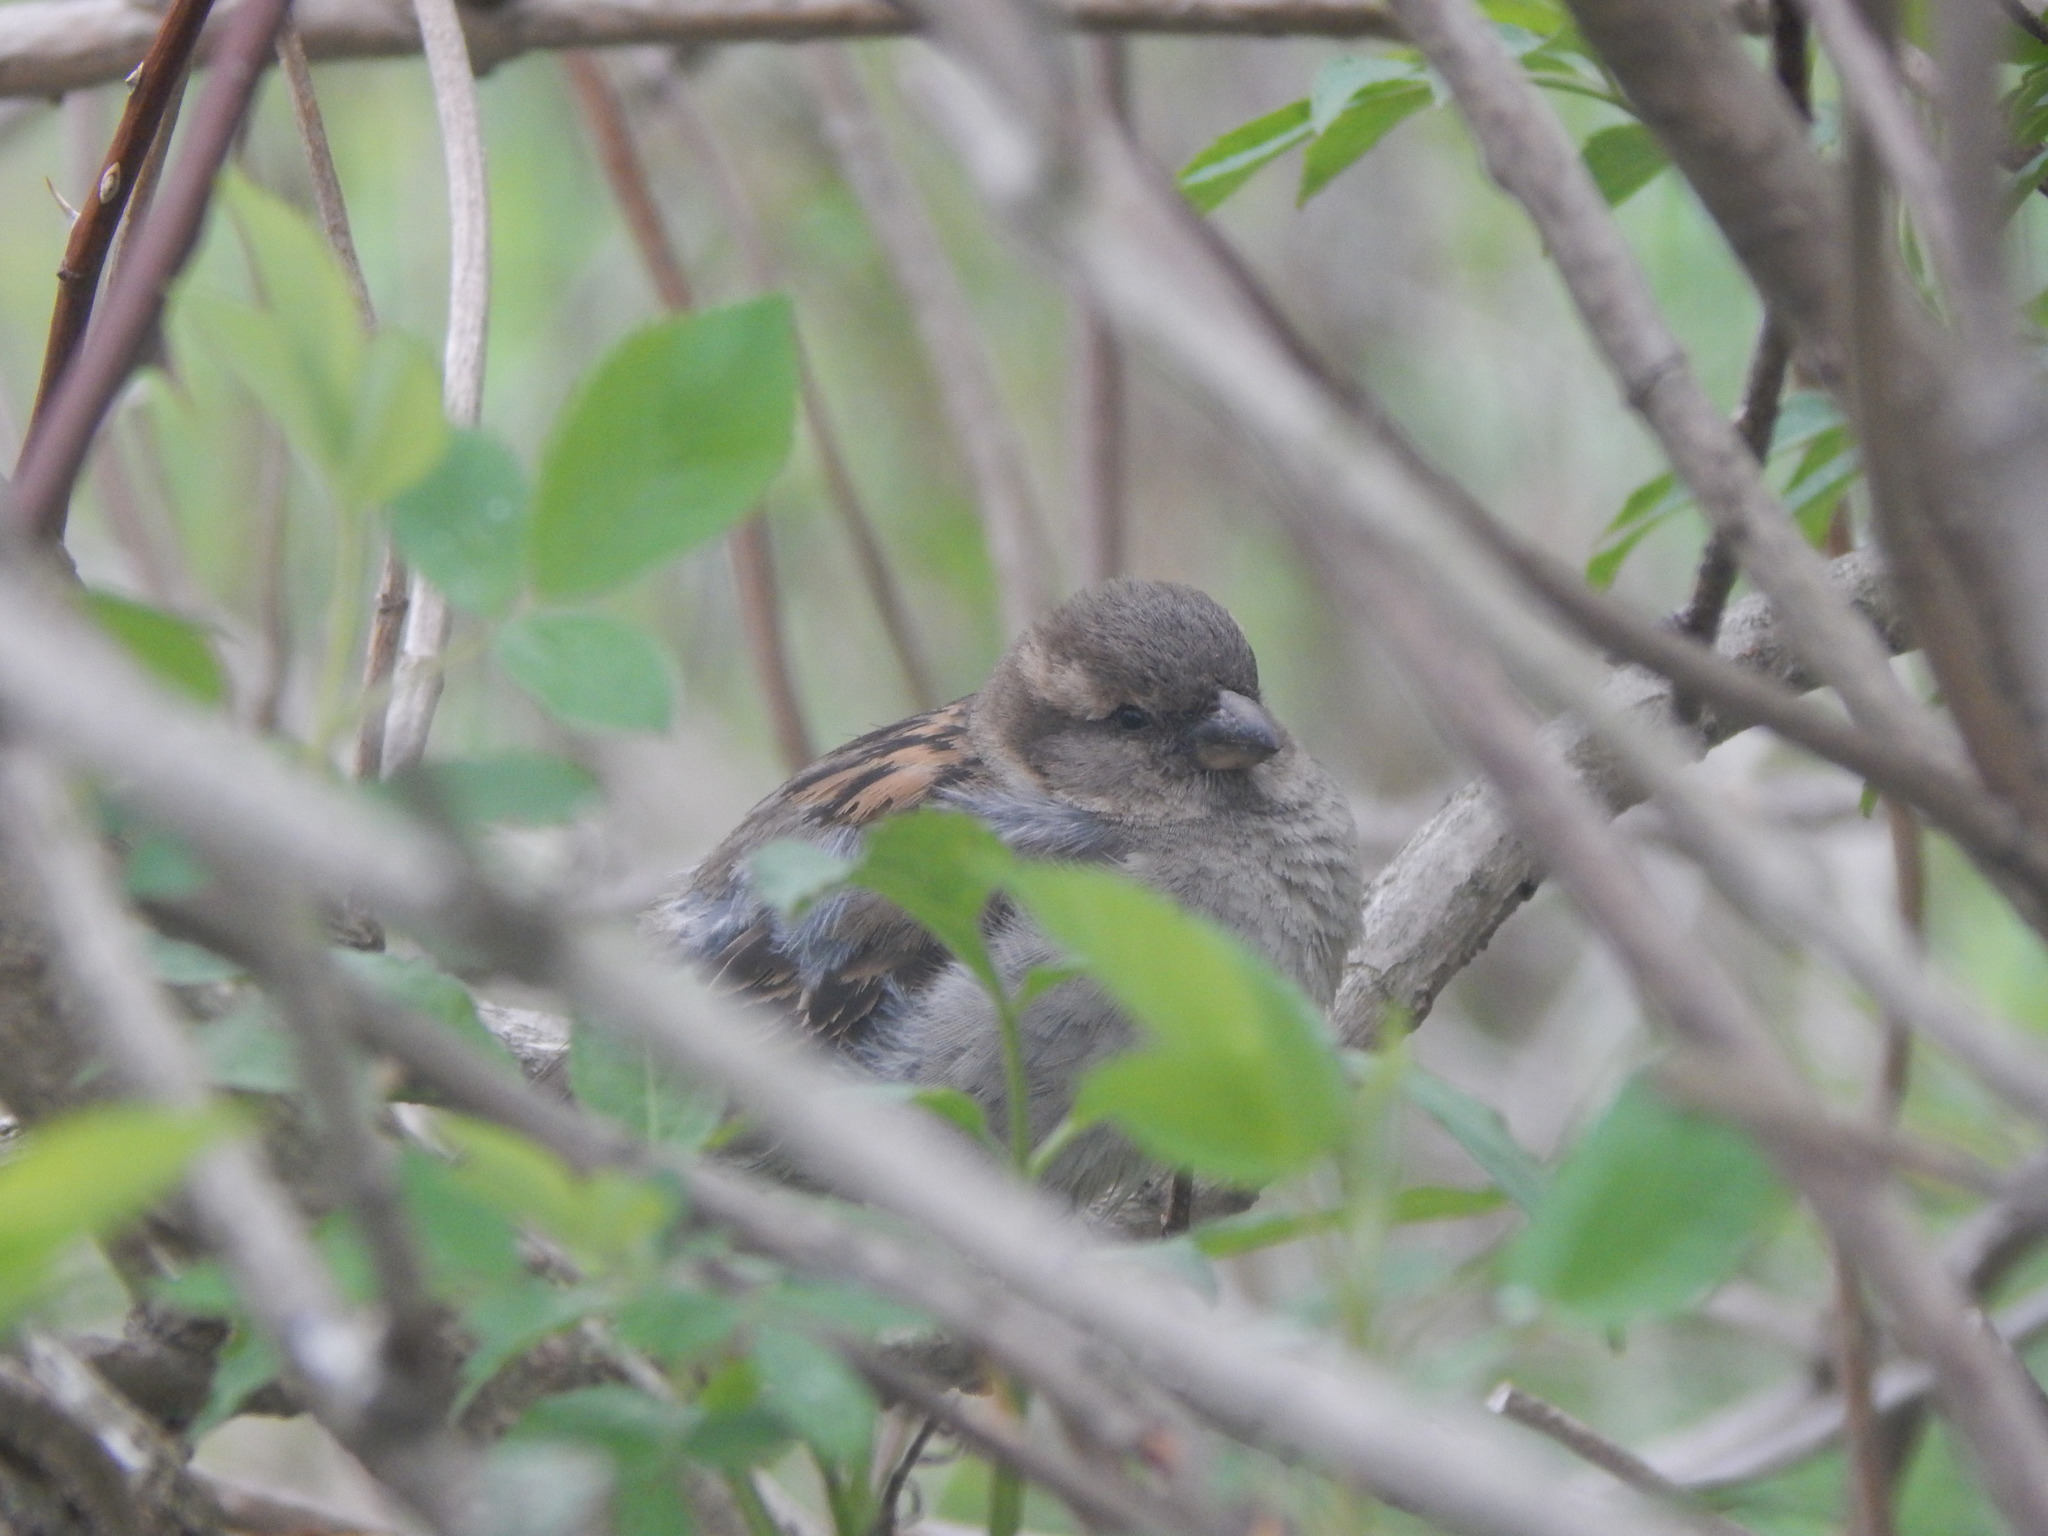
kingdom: Animalia
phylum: Chordata
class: Aves
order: Passeriformes
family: Passeridae
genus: Passer
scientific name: Passer domesticus
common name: House sparrow
